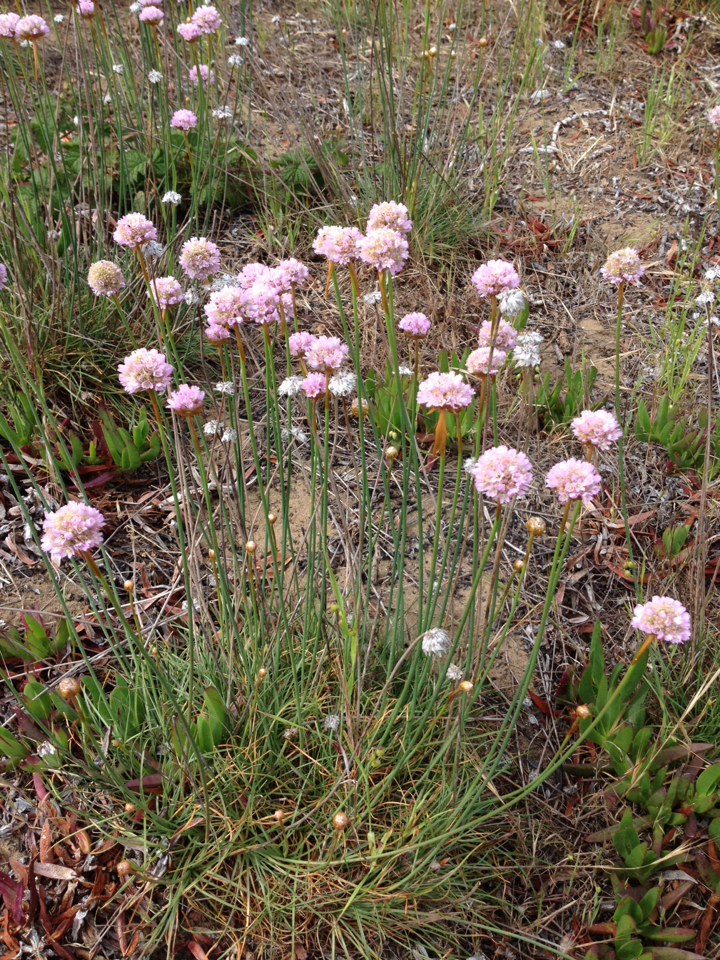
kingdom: Plantae
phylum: Tracheophyta
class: Magnoliopsida
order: Caryophyllales
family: Plumbaginaceae
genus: Armeria
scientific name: Armeria maritima
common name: Thrift
